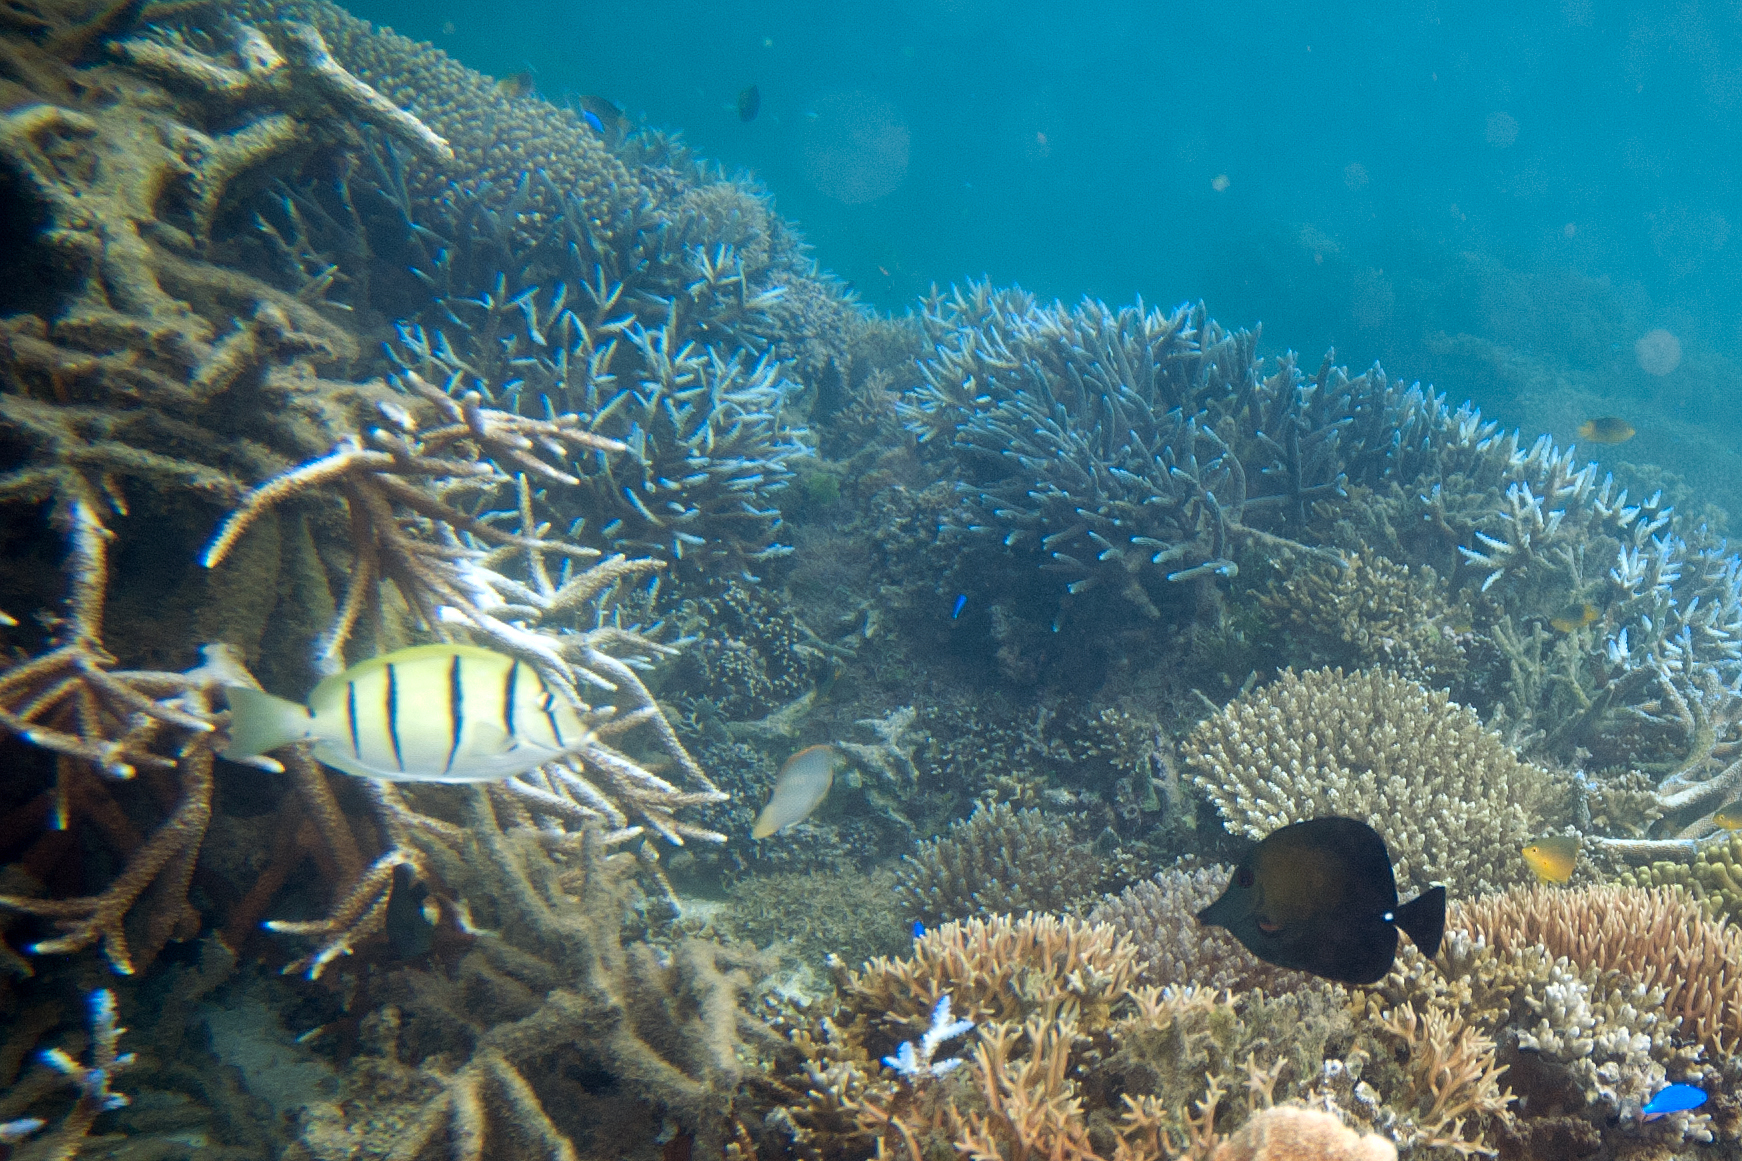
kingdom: Animalia
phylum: Chordata
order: Perciformes
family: Acanthuridae
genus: Zebrasoma
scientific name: Zebrasoma scopas
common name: Twotone tang
